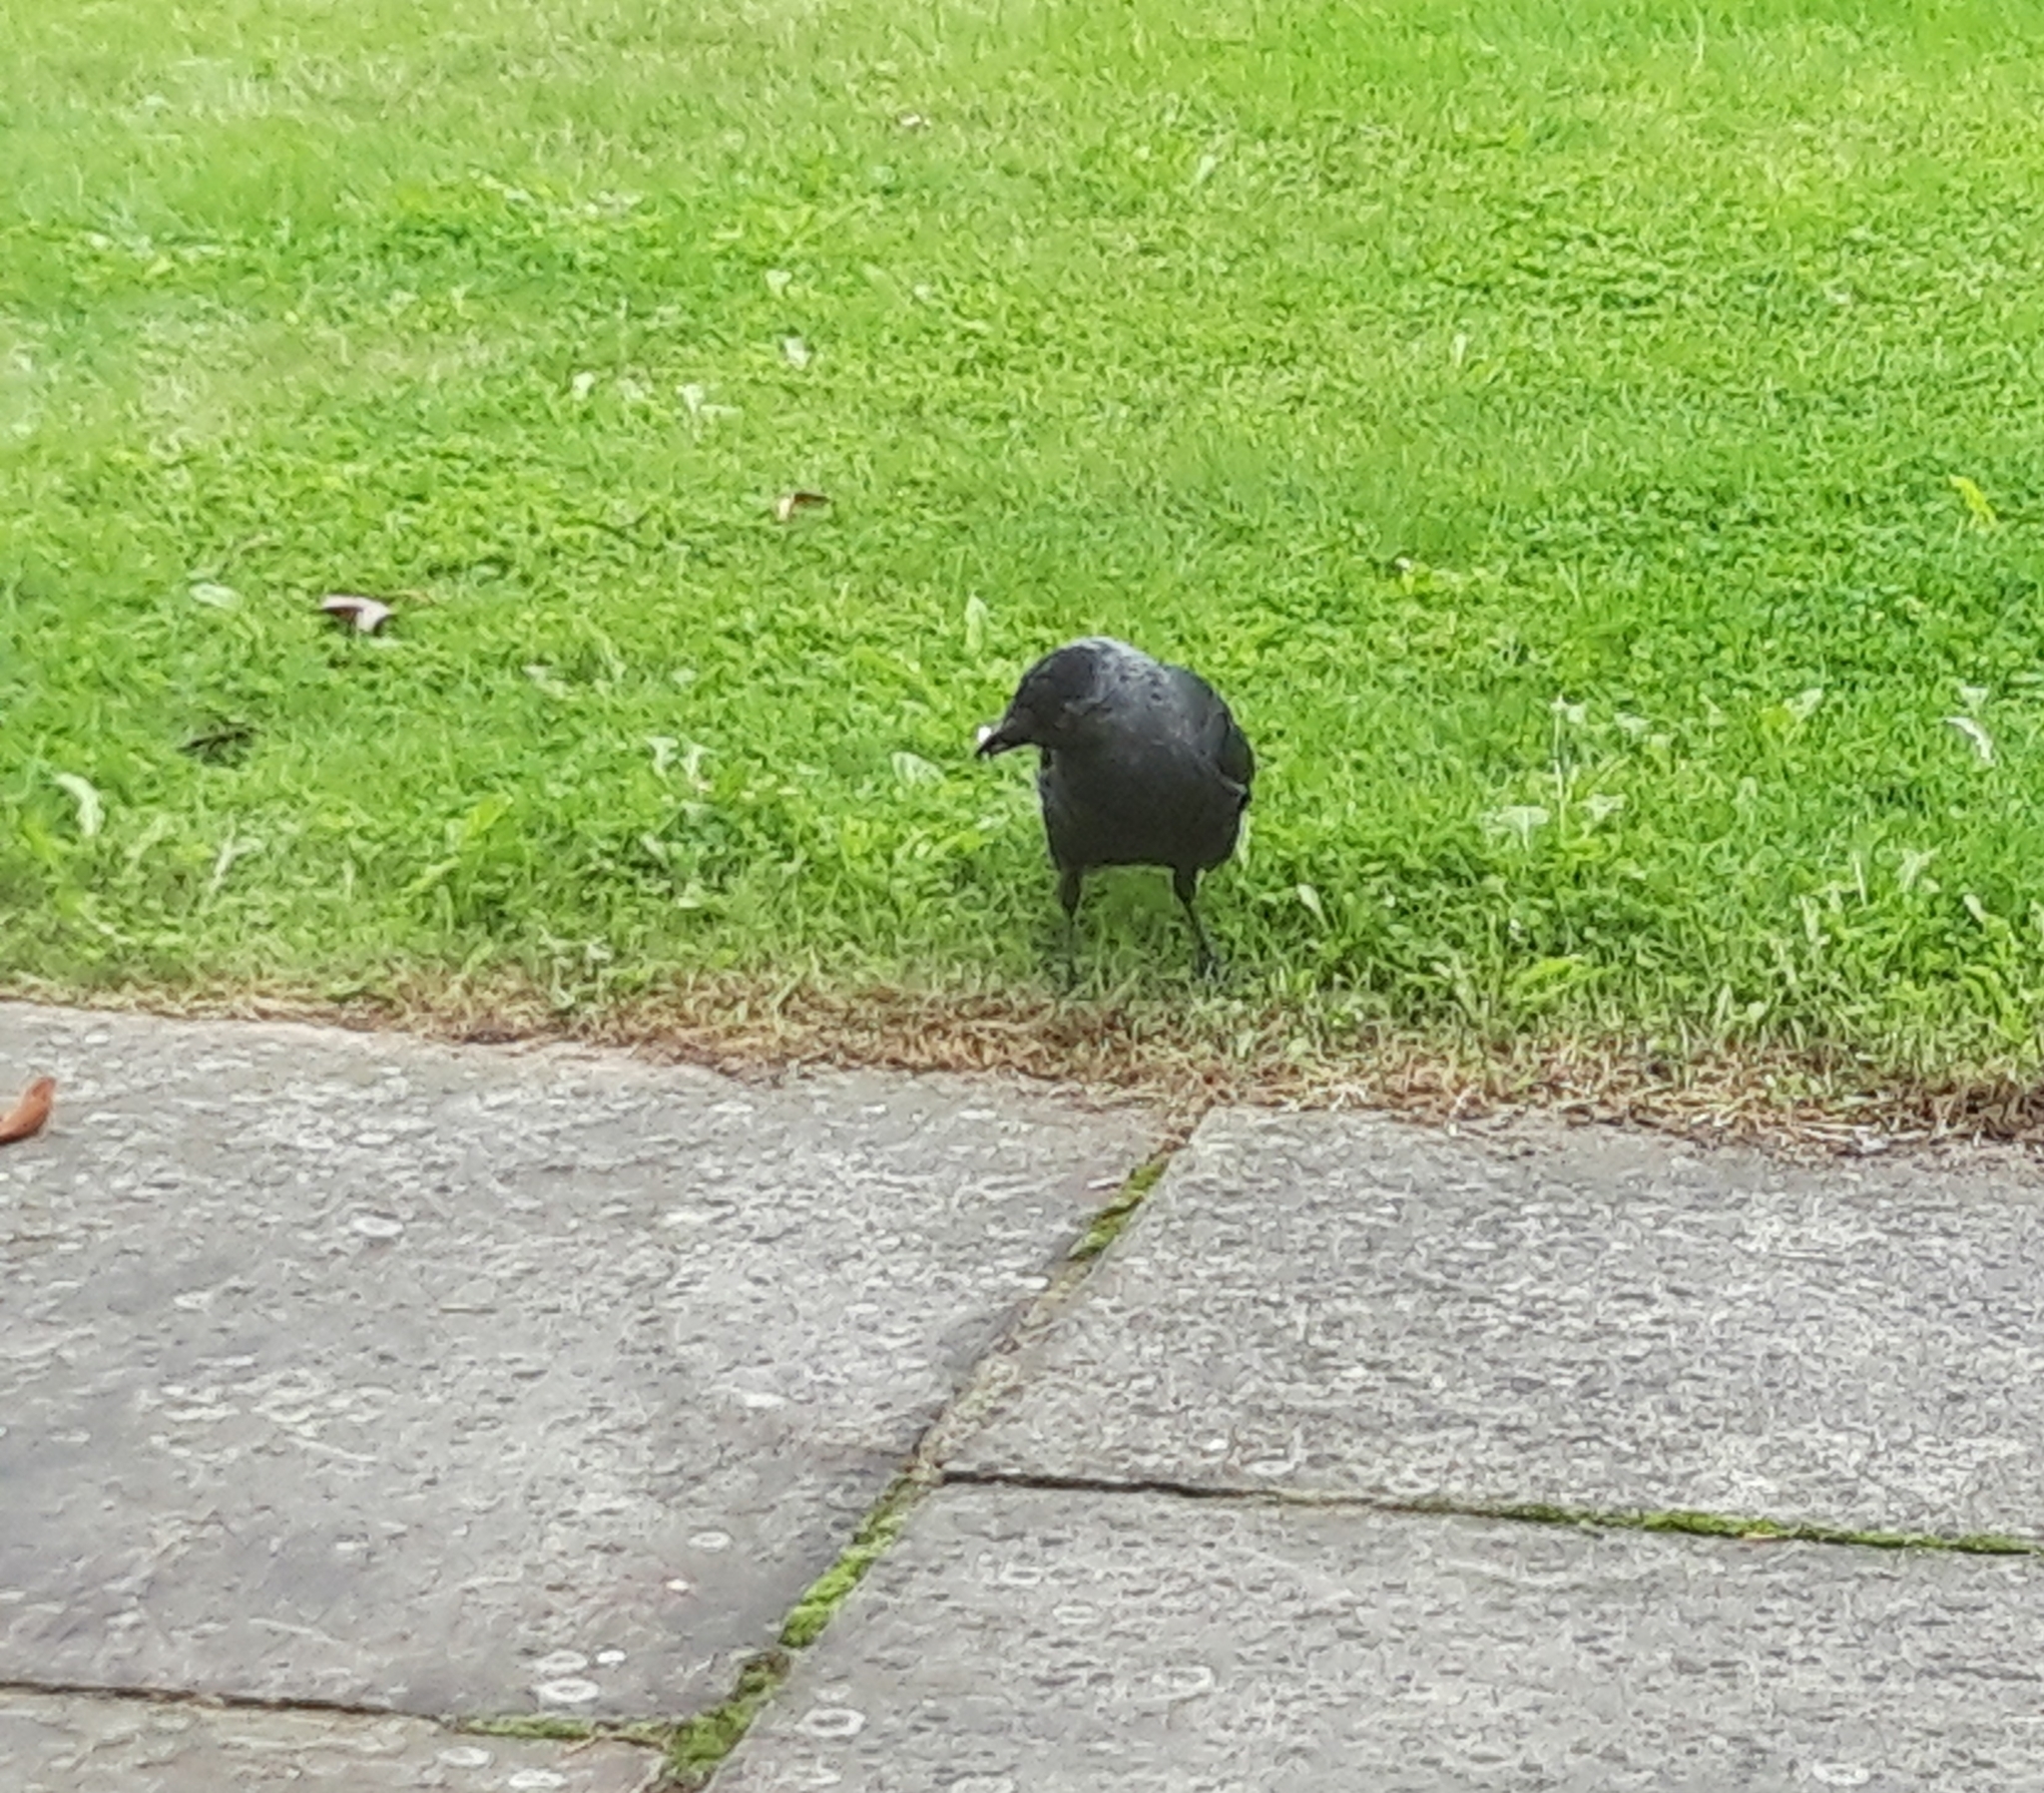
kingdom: Animalia
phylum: Chordata
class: Aves
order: Passeriformes
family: Corvidae
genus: Coloeus
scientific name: Coloeus monedula
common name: Western jackdaw
